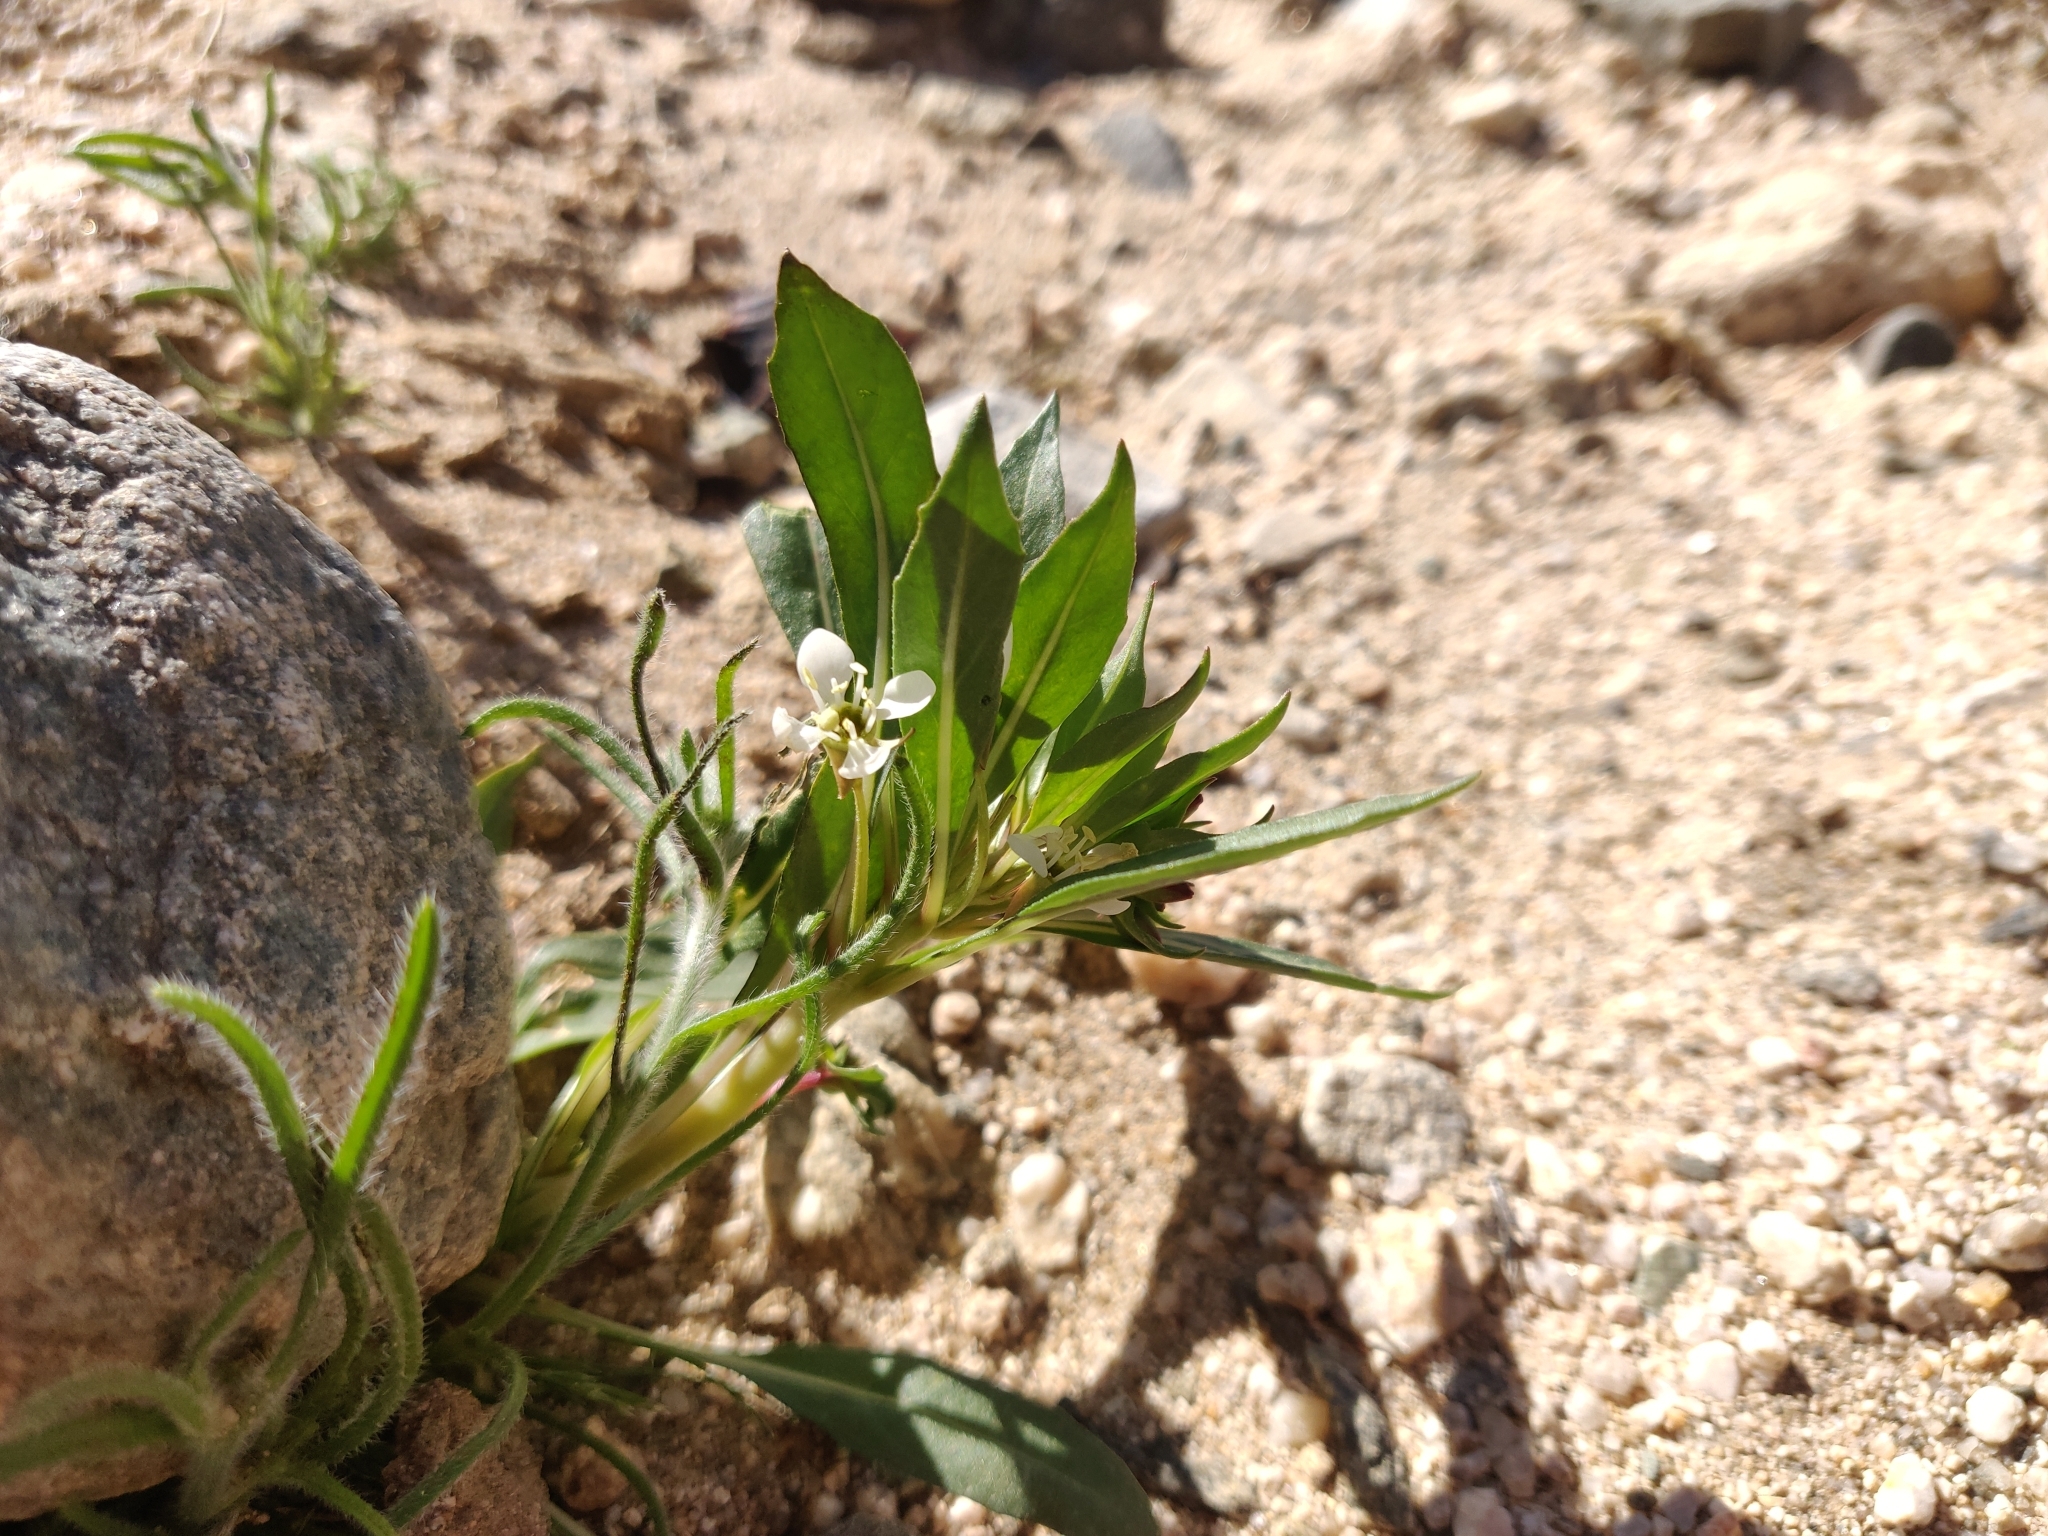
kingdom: Plantae
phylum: Tracheophyta
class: Magnoliopsida
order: Myrtales
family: Onagraceae
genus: Eremothera
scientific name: Eremothera boothii
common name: Booth's evening primrose
